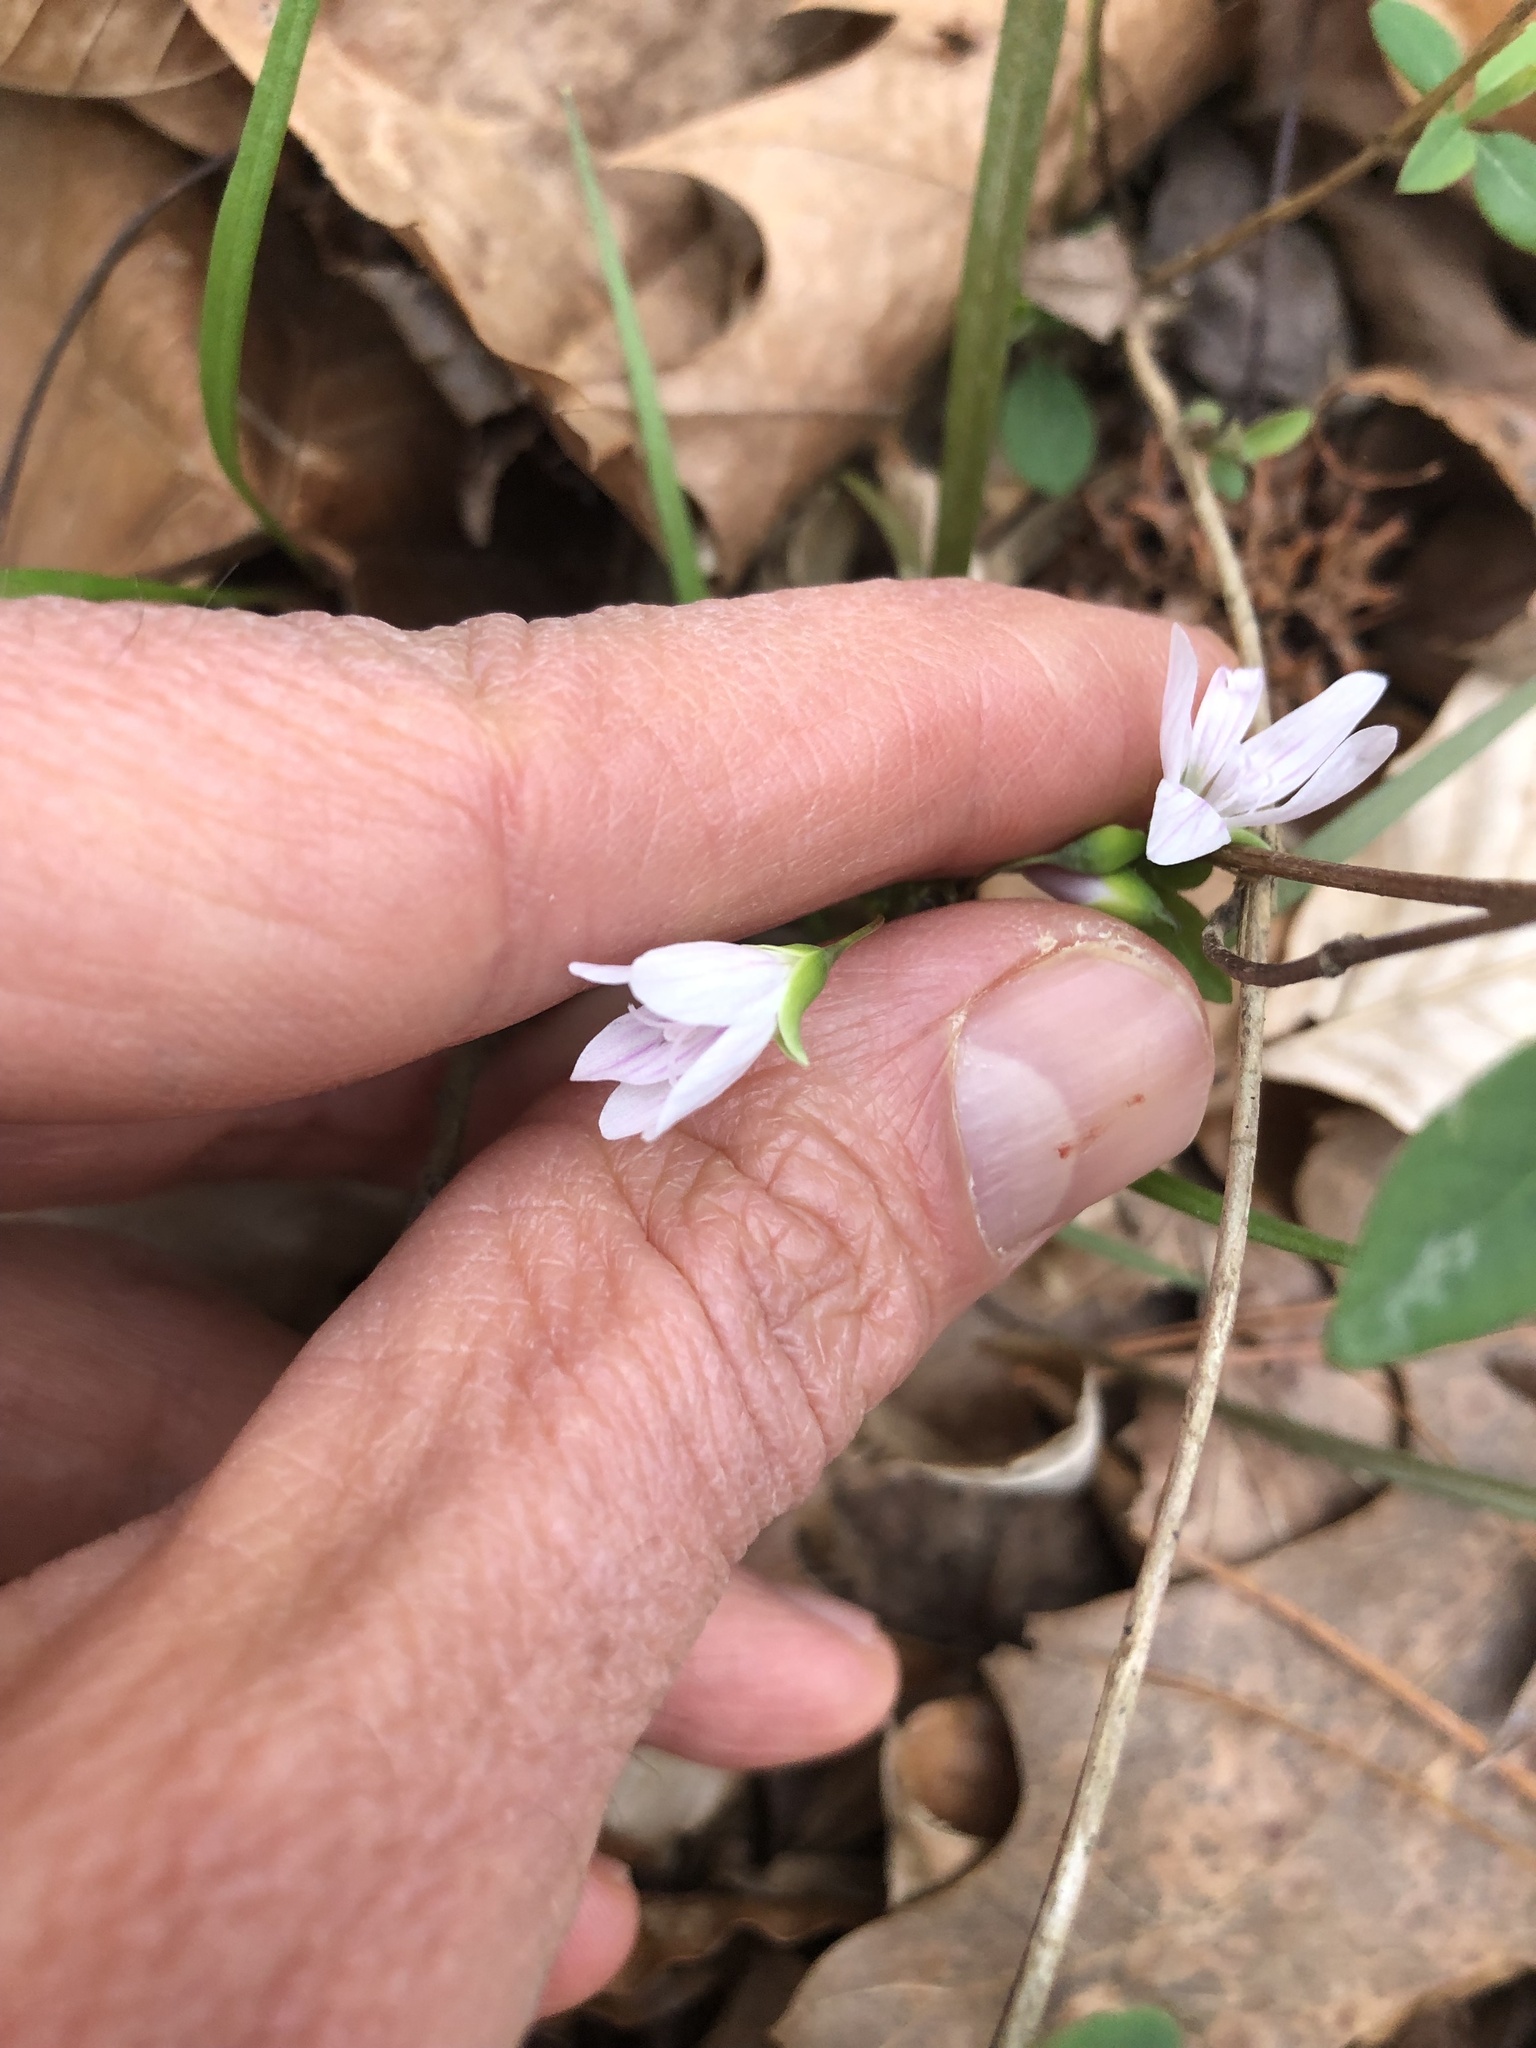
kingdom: Plantae
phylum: Tracheophyta
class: Magnoliopsida
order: Caryophyllales
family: Montiaceae
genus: Claytonia
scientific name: Claytonia virginica
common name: Virginia springbeauty
